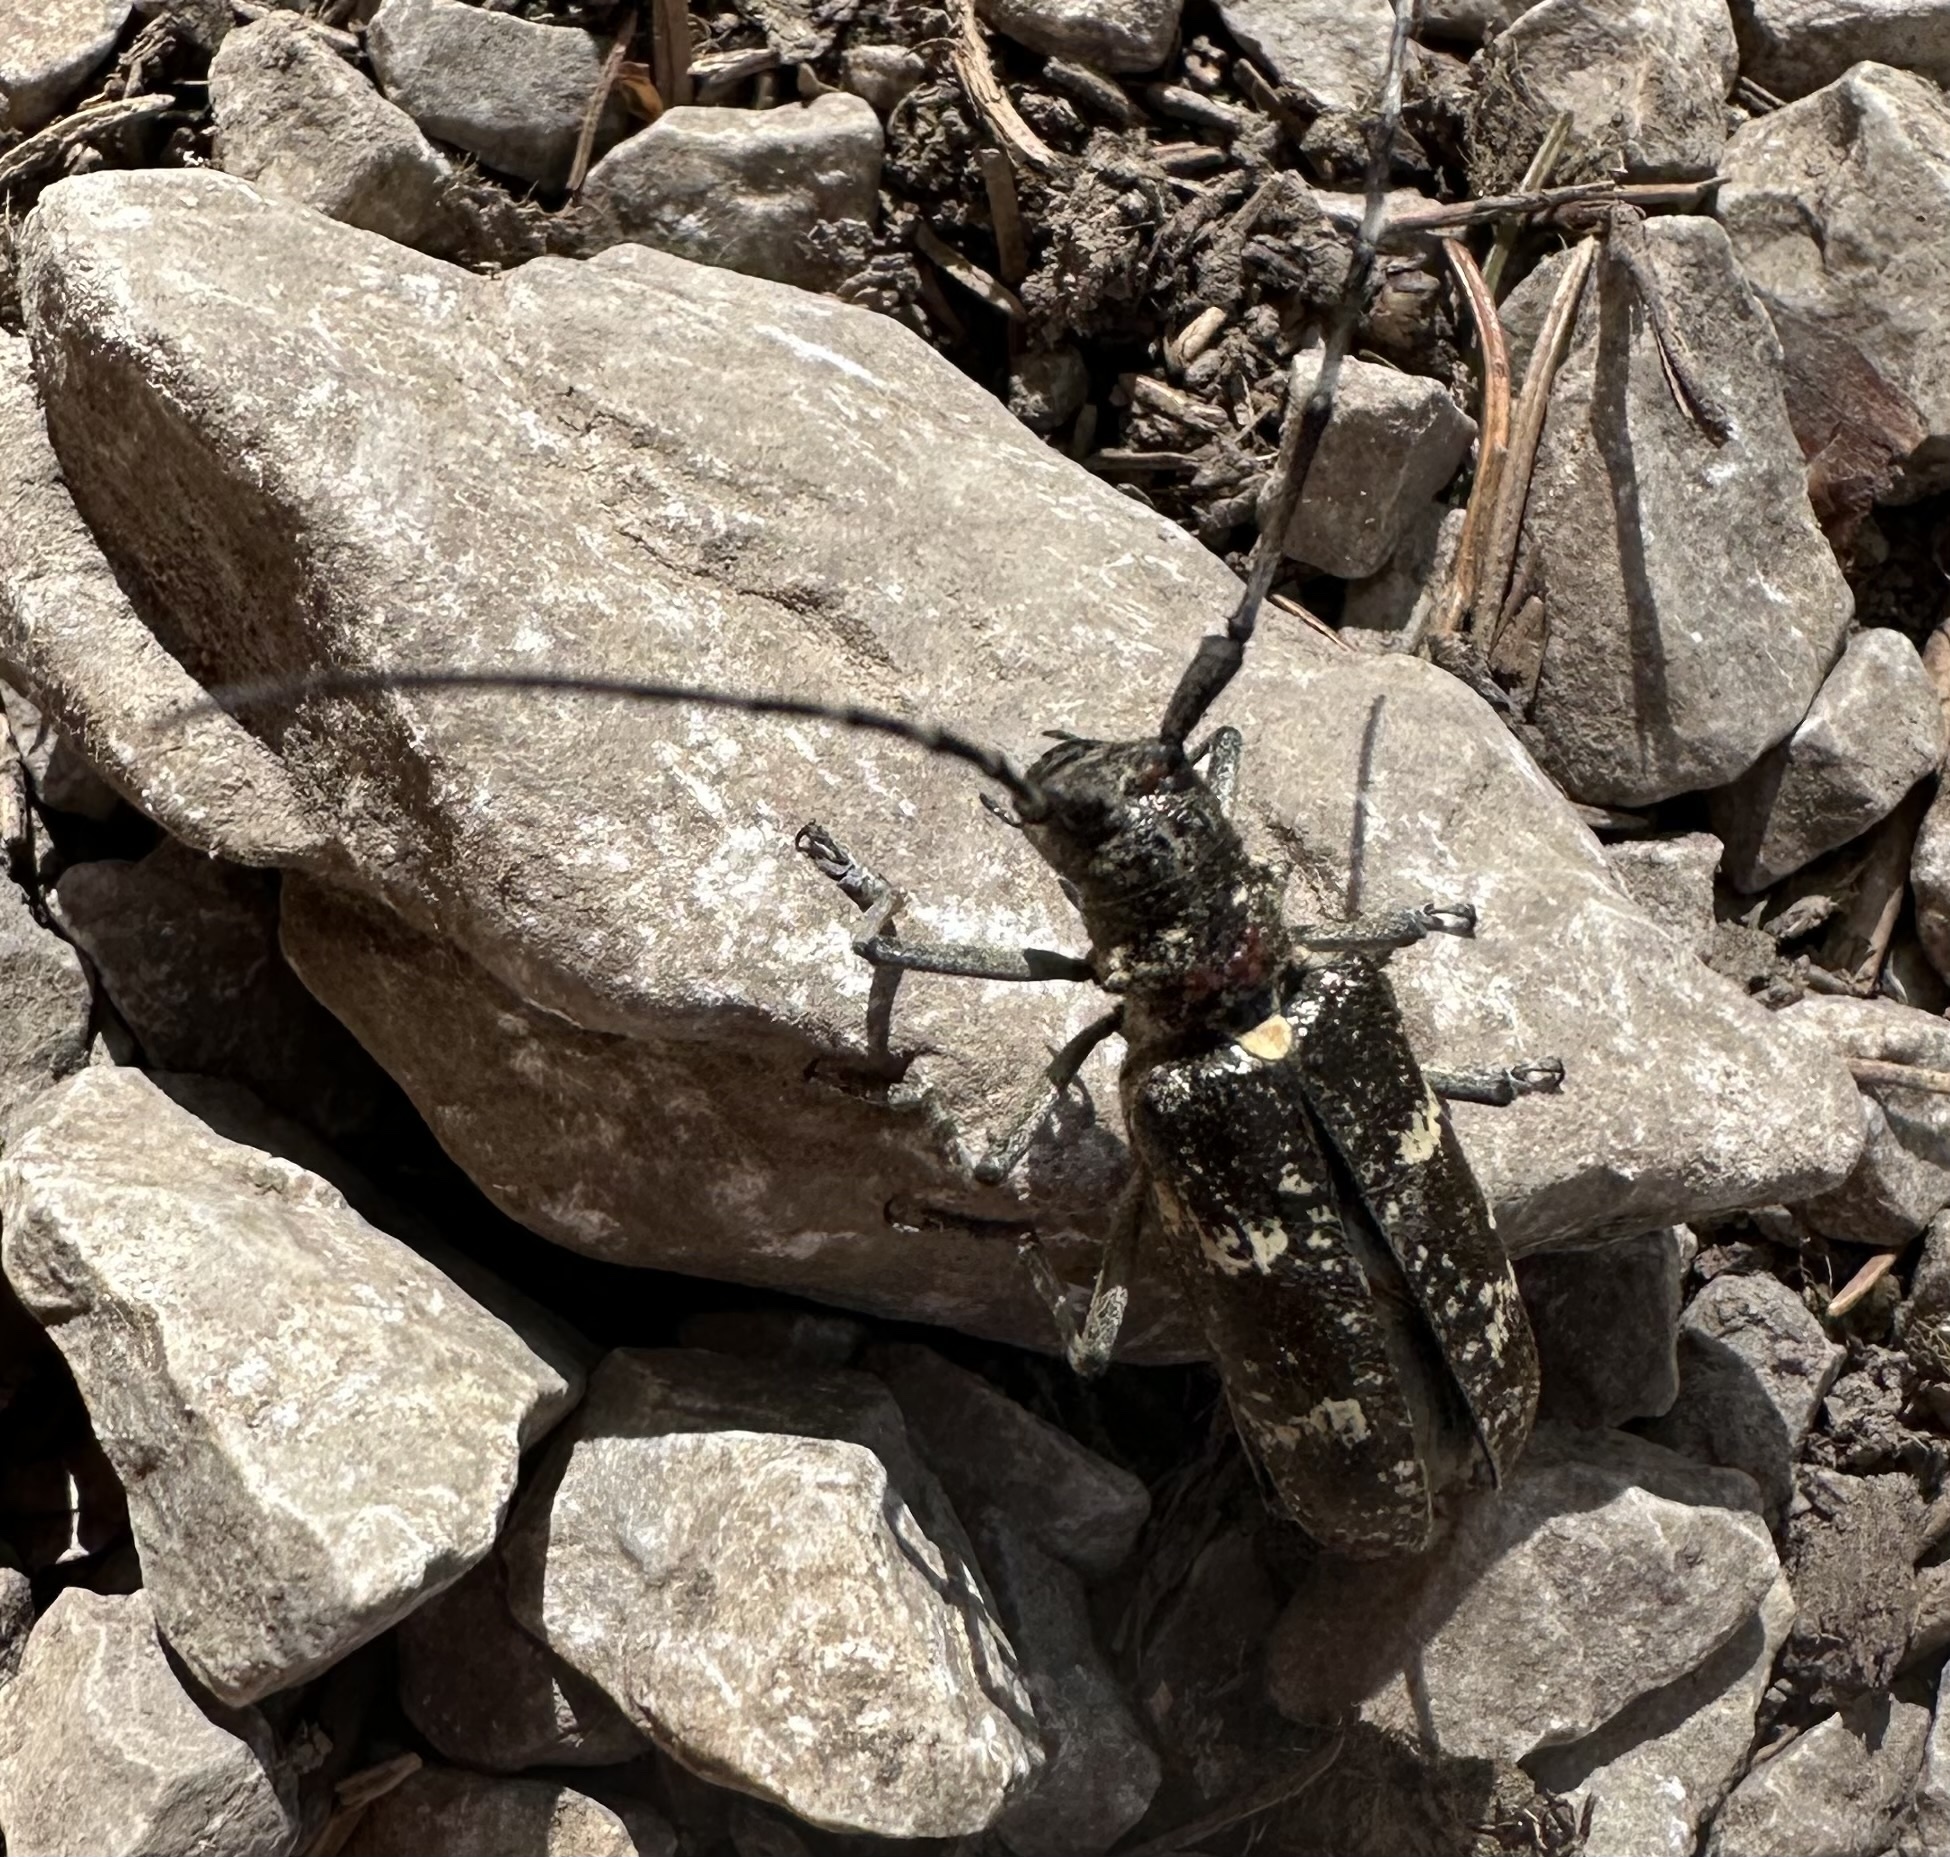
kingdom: Animalia
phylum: Arthropoda
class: Insecta
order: Coleoptera
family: Cerambycidae
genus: Monochamus
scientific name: Monochamus sartor
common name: Pine sawyer
